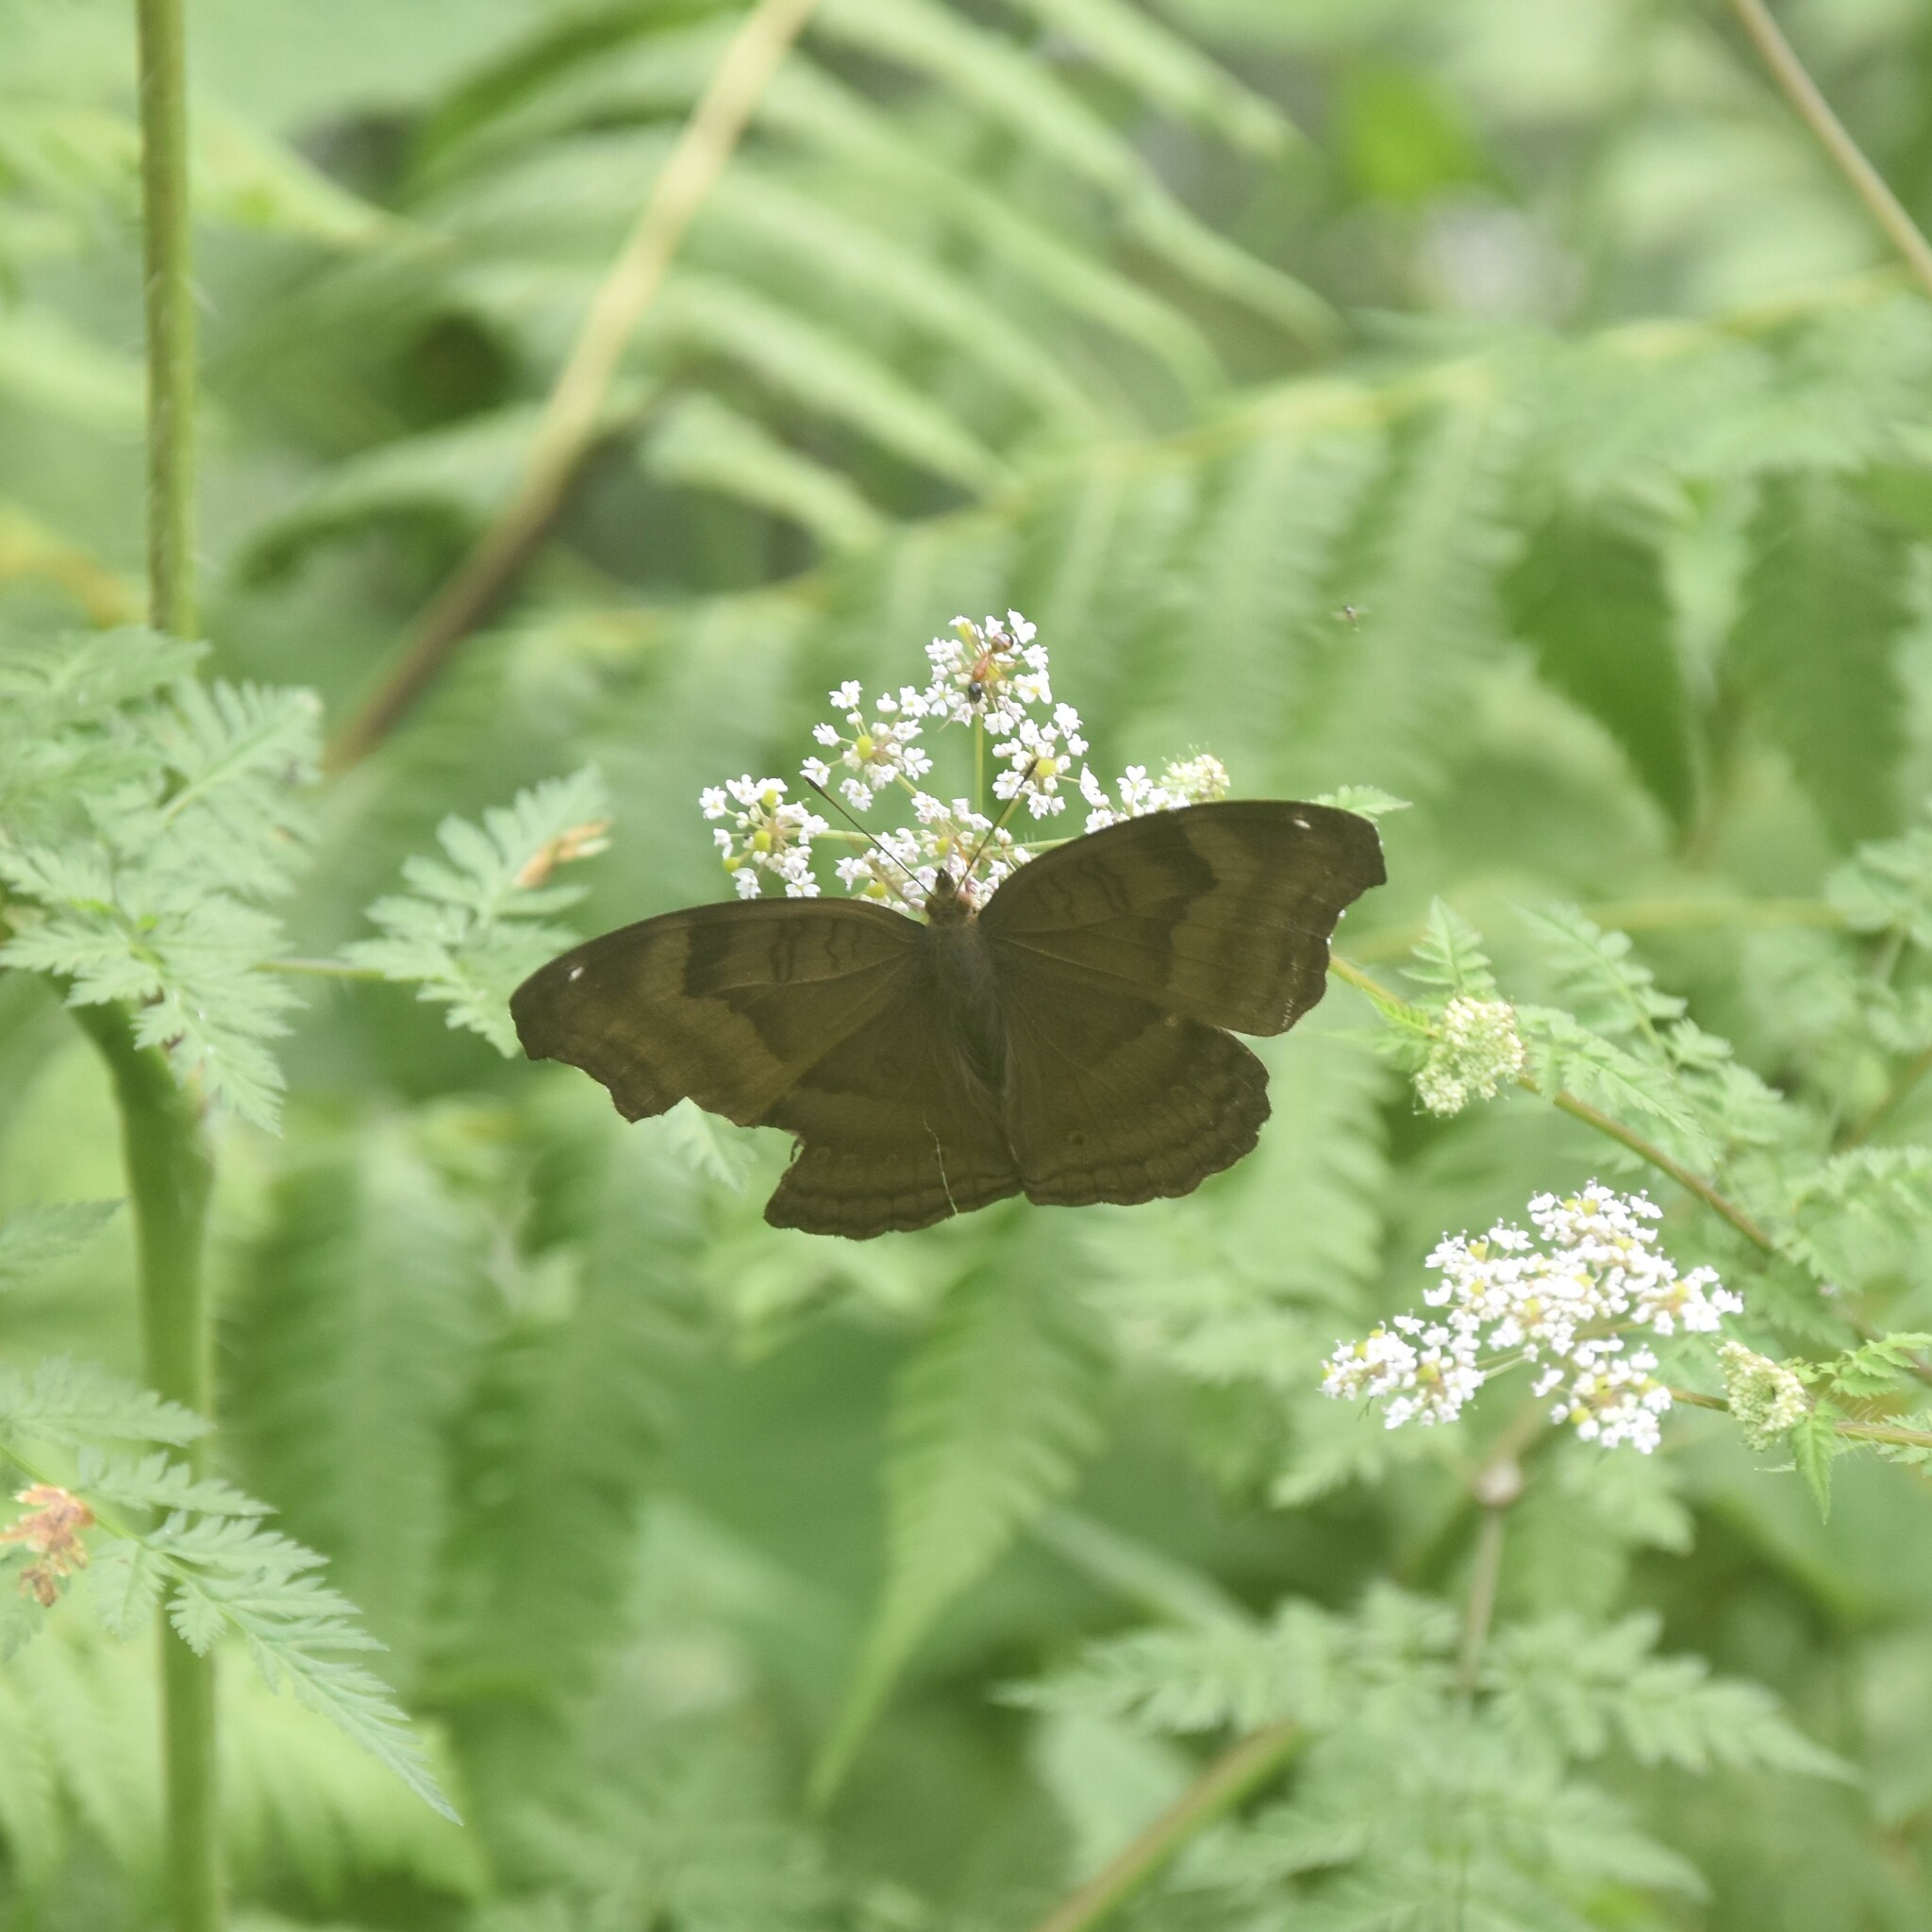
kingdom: Animalia
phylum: Arthropoda
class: Insecta
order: Lepidoptera
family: Nymphalidae
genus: Junonia
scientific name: Junonia iphita
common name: Chocolate pansy
